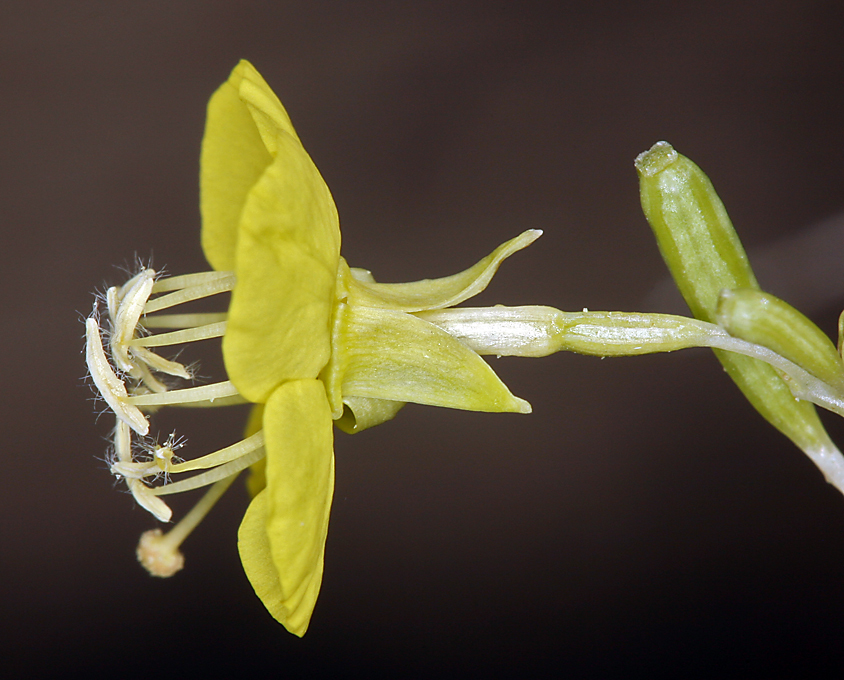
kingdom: Plantae
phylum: Tracheophyta
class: Magnoliopsida
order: Myrtales
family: Onagraceae
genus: Chylismia
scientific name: Chylismia claviformis
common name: Browneyes
